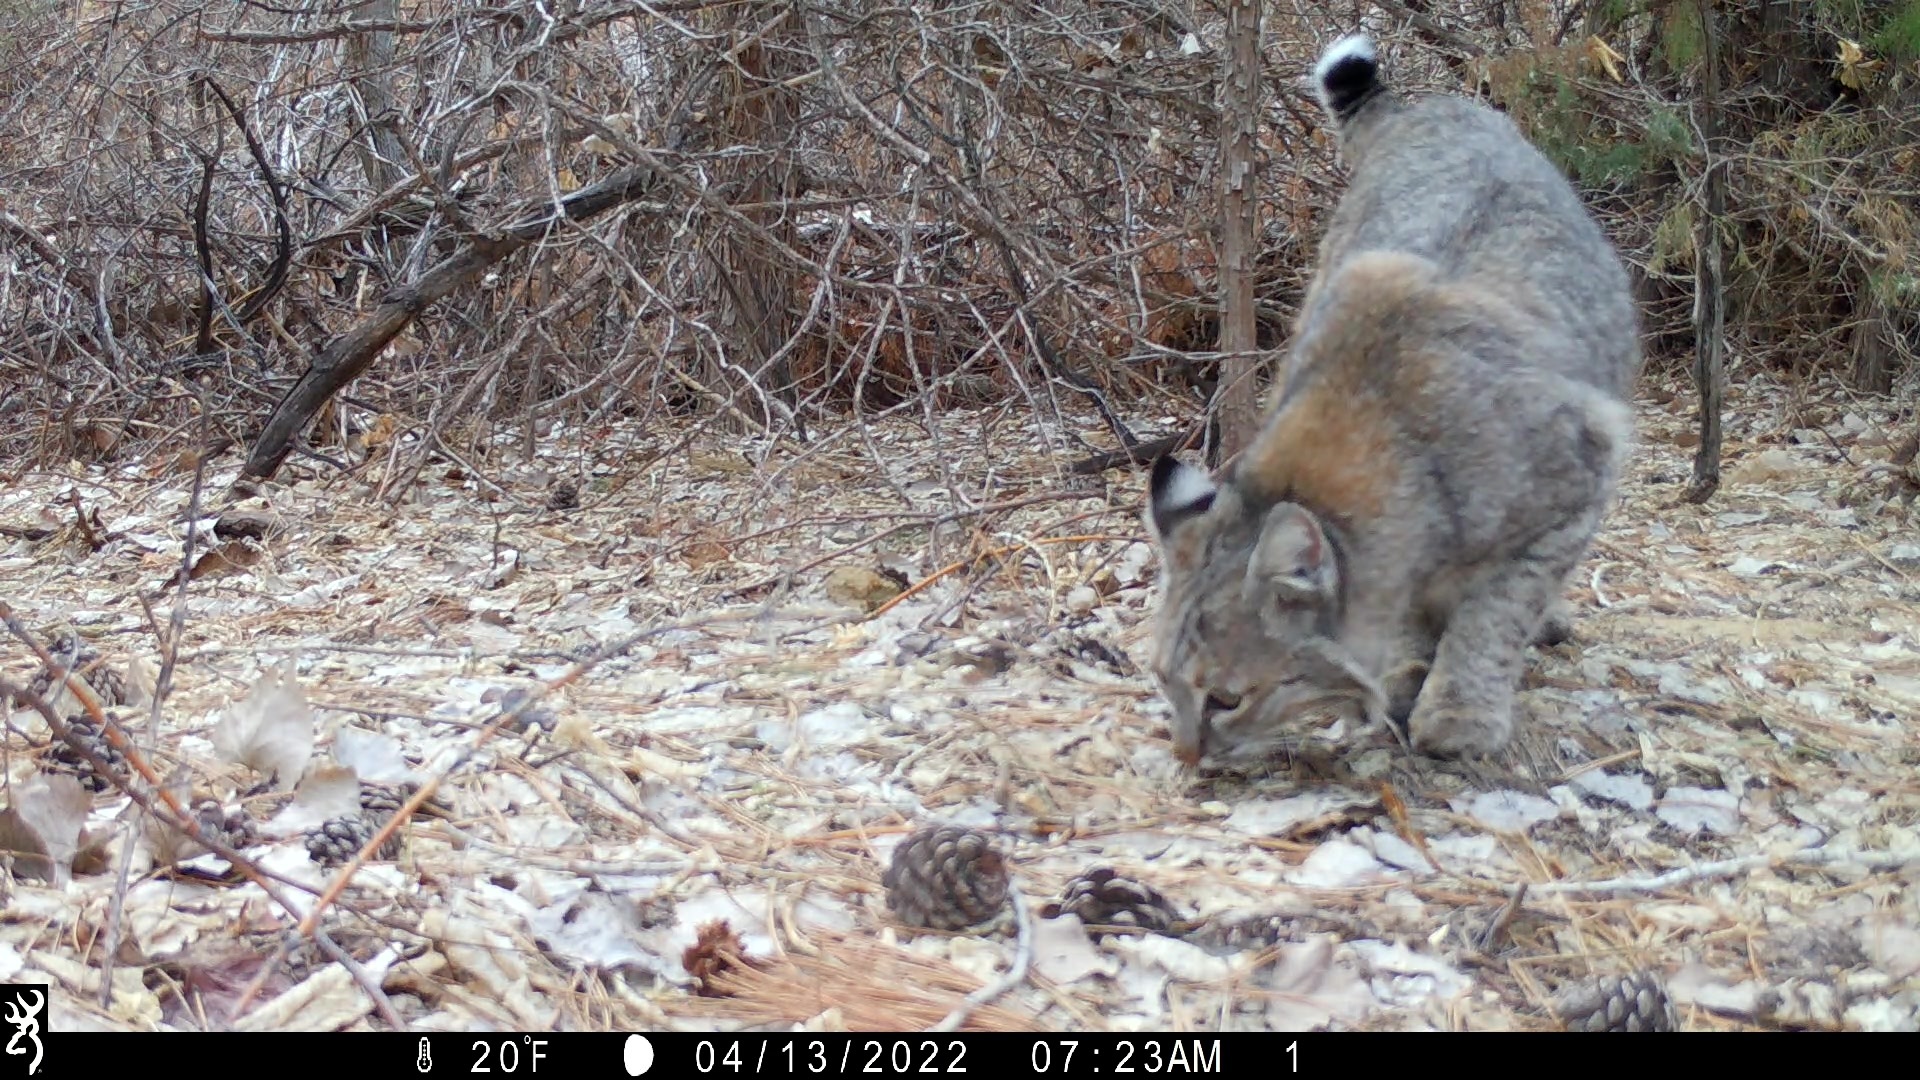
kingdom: Animalia
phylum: Chordata
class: Mammalia
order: Carnivora
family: Felidae
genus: Lynx
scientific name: Lynx rufus
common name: Bobcat
